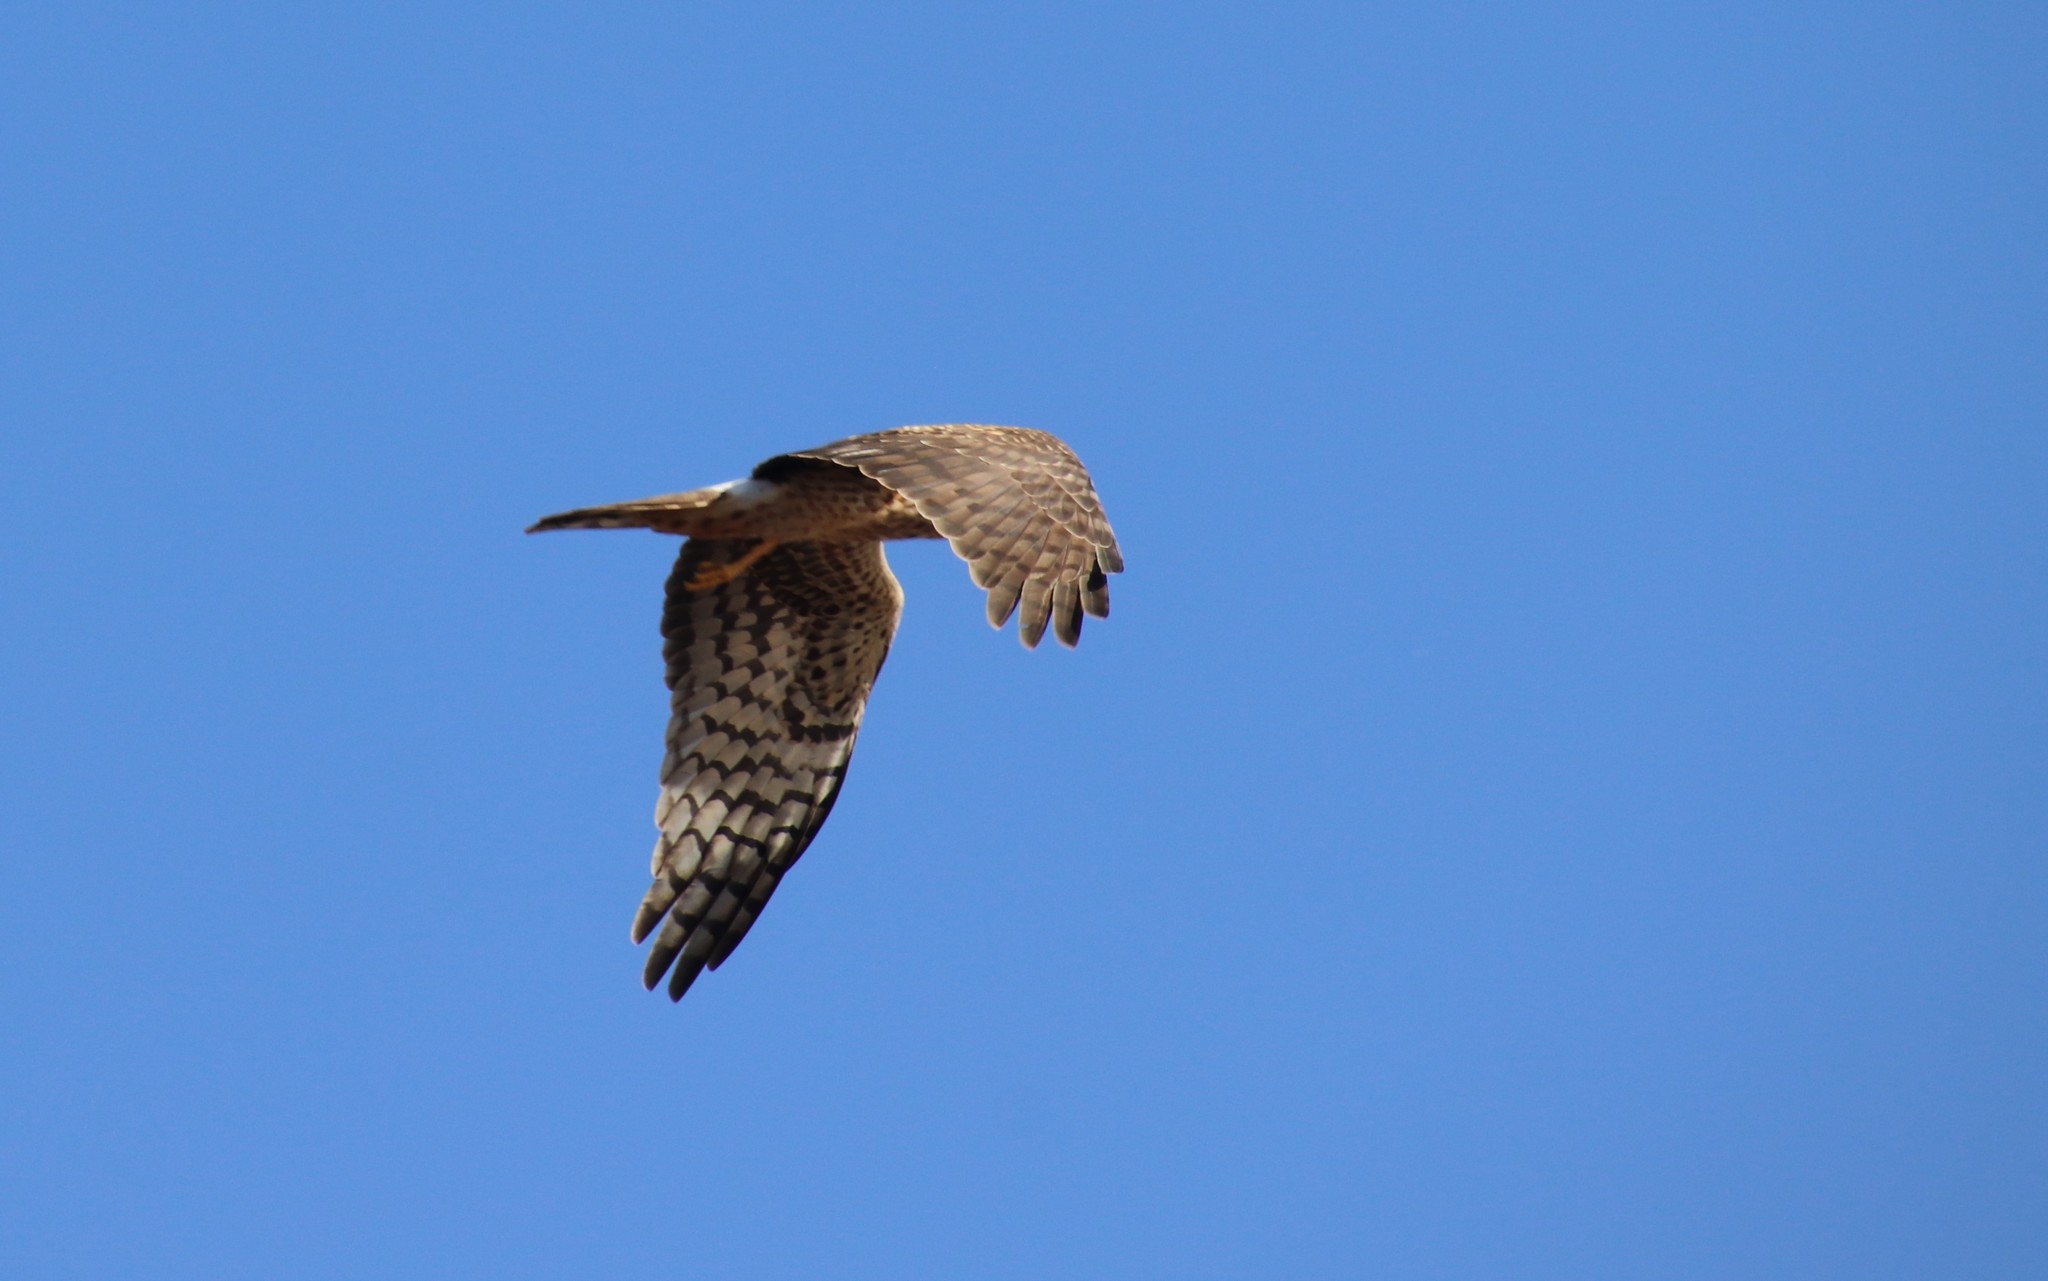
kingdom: Animalia
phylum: Chordata
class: Aves
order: Accipitriformes
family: Accipitridae
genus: Circus
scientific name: Circus cyaneus
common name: Hen harrier
